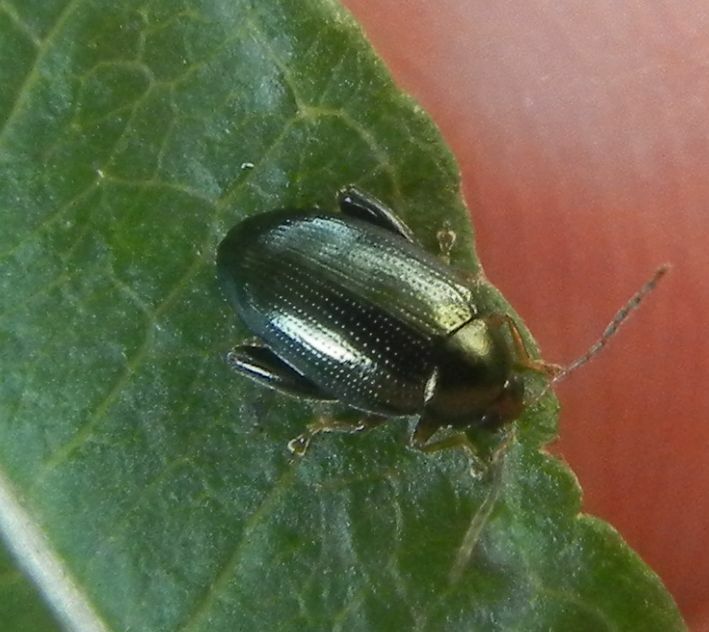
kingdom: Animalia
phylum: Arthropoda
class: Insecta
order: Coleoptera
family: Chrysomelidae
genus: Psylliodes
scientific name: Psylliodes chrysocephalus
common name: Cabbage-stem flea beetle
